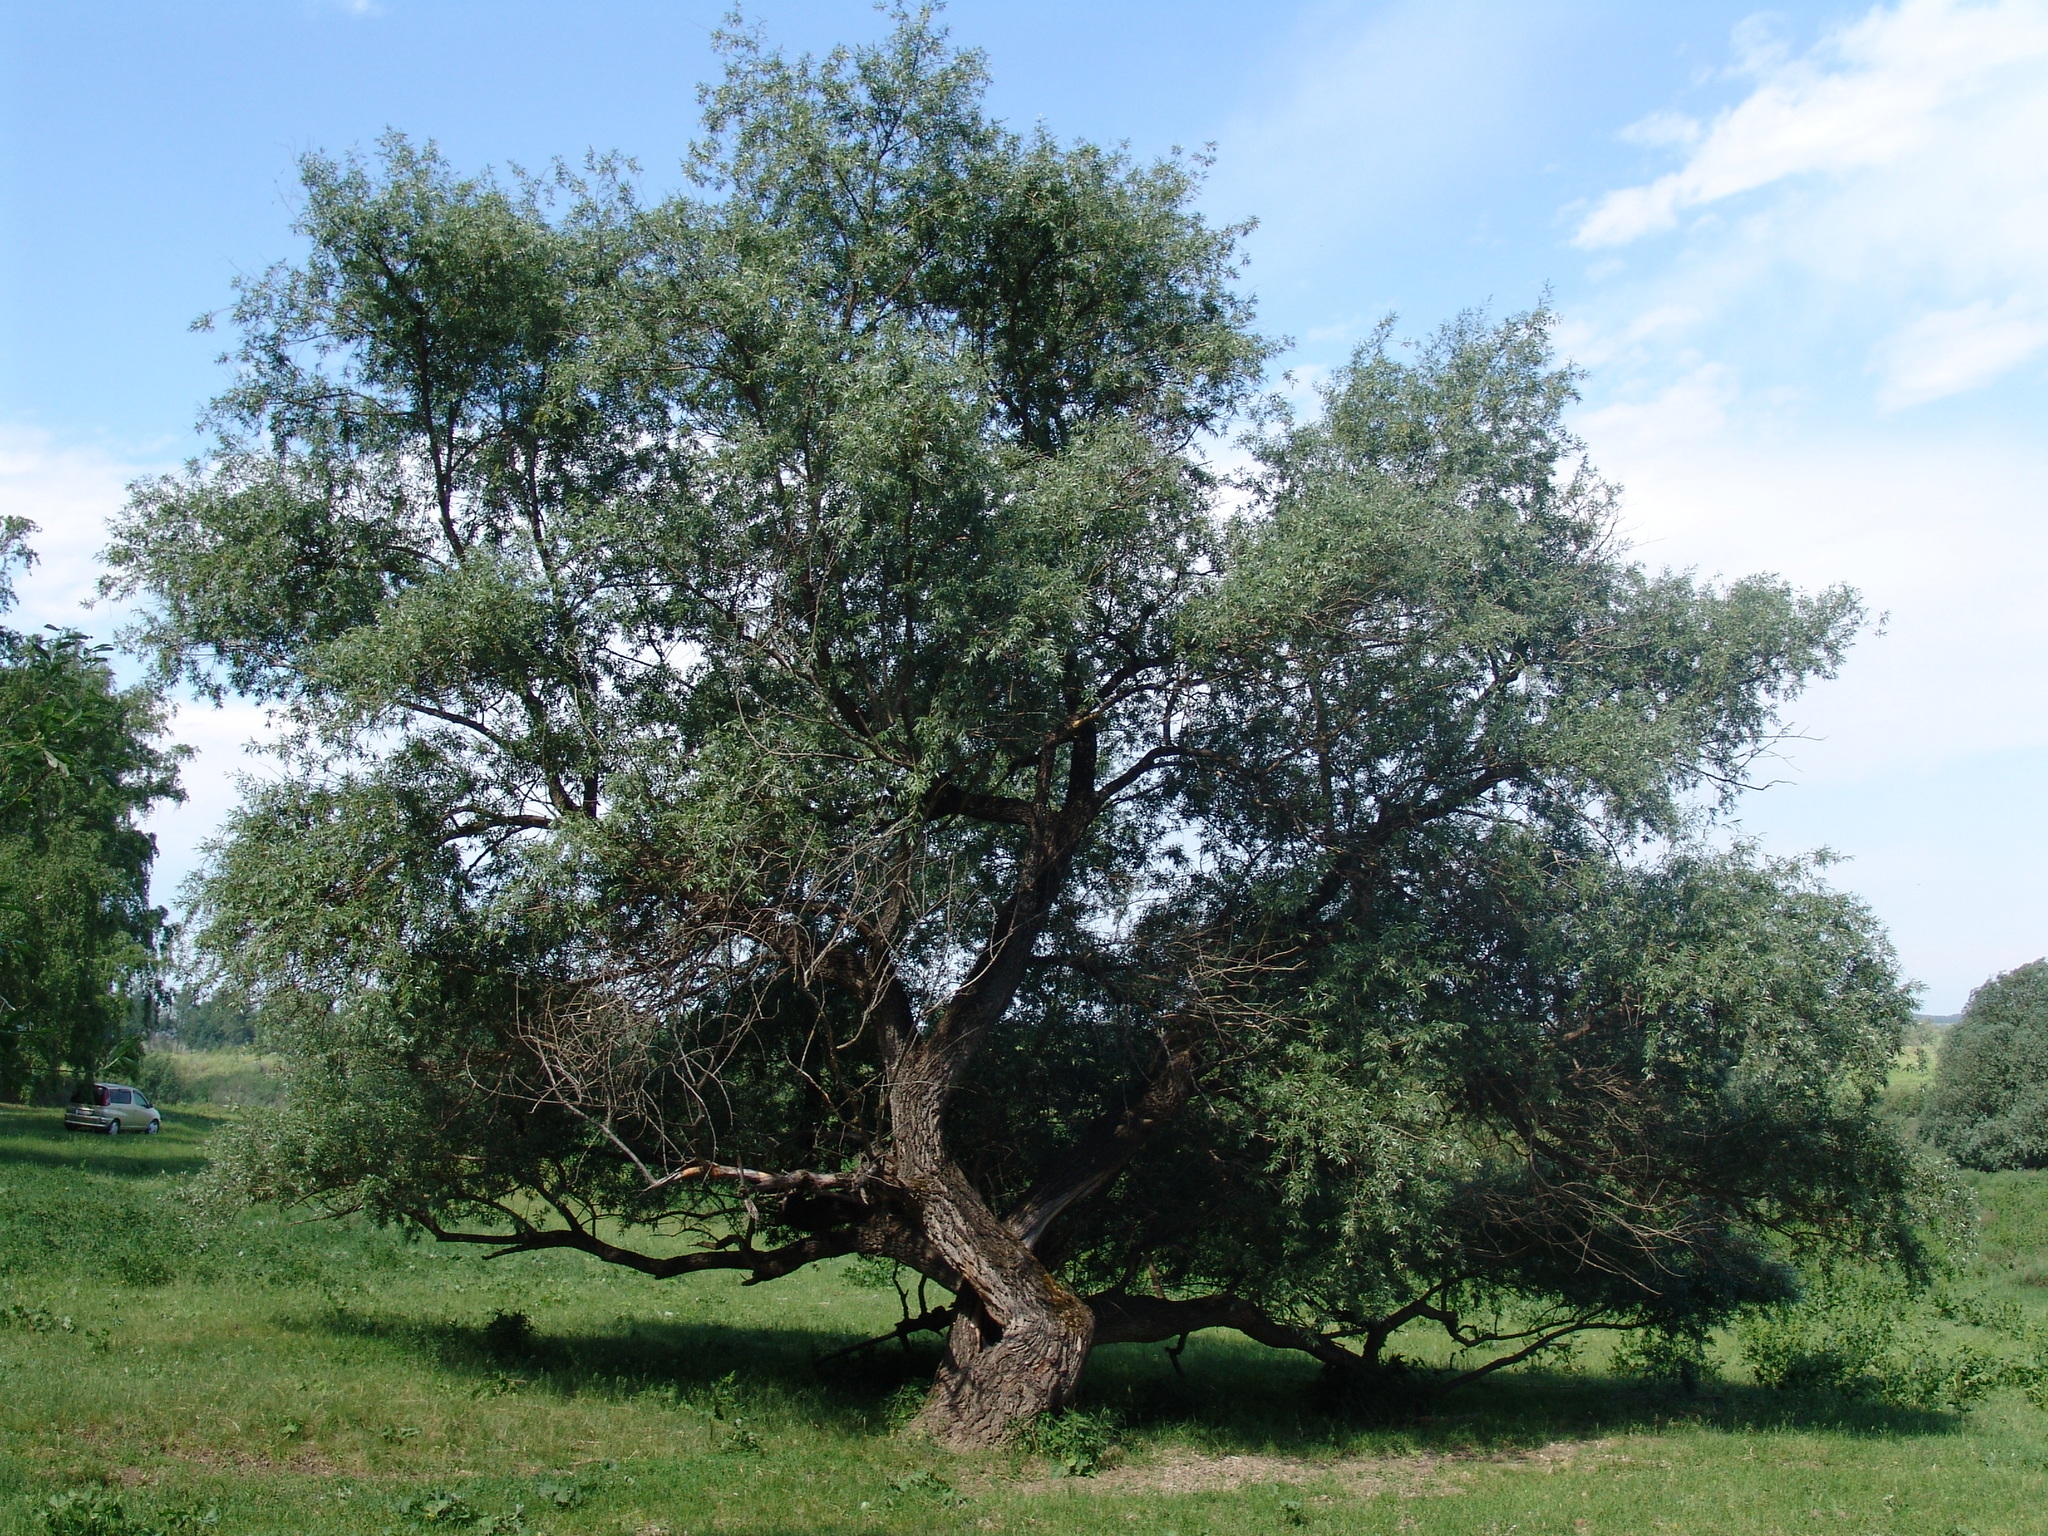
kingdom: Plantae
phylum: Tracheophyta
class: Magnoliopsida
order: Malpighiales
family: Salicaceae
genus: Salix
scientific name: Salix alba
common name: White willow
